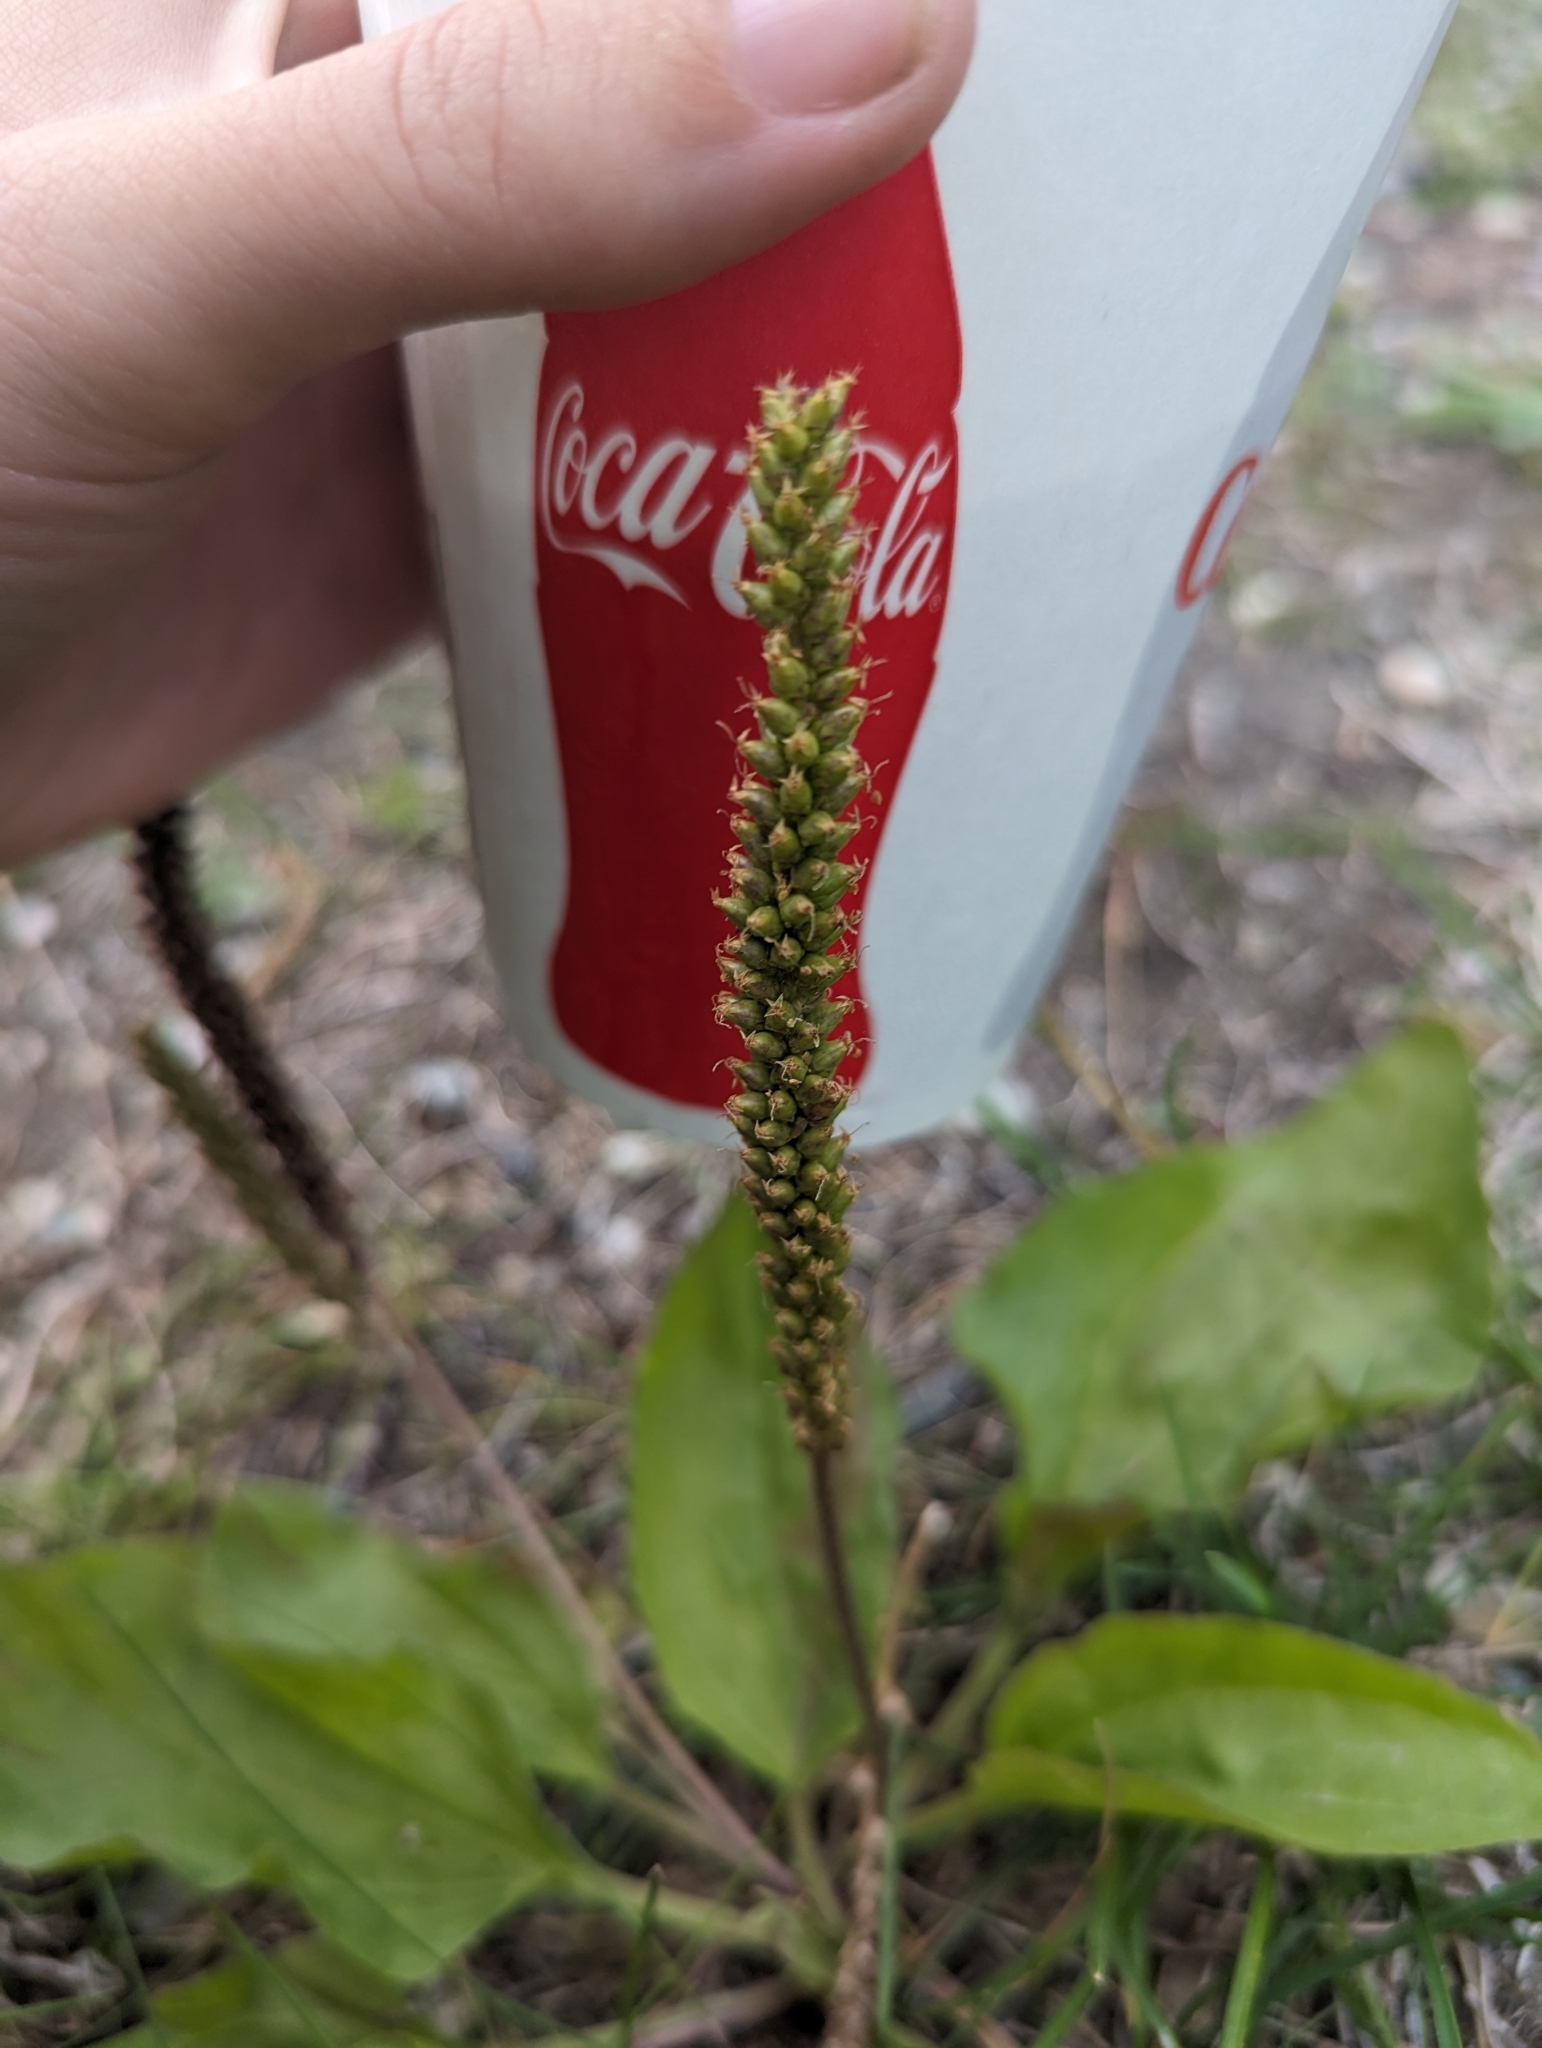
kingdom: Plantae
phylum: Tracheophyta
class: Magnoliopsida
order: Lamiales
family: Plantaginaceae
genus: Plantago
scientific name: Plantago major
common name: Common plantain
